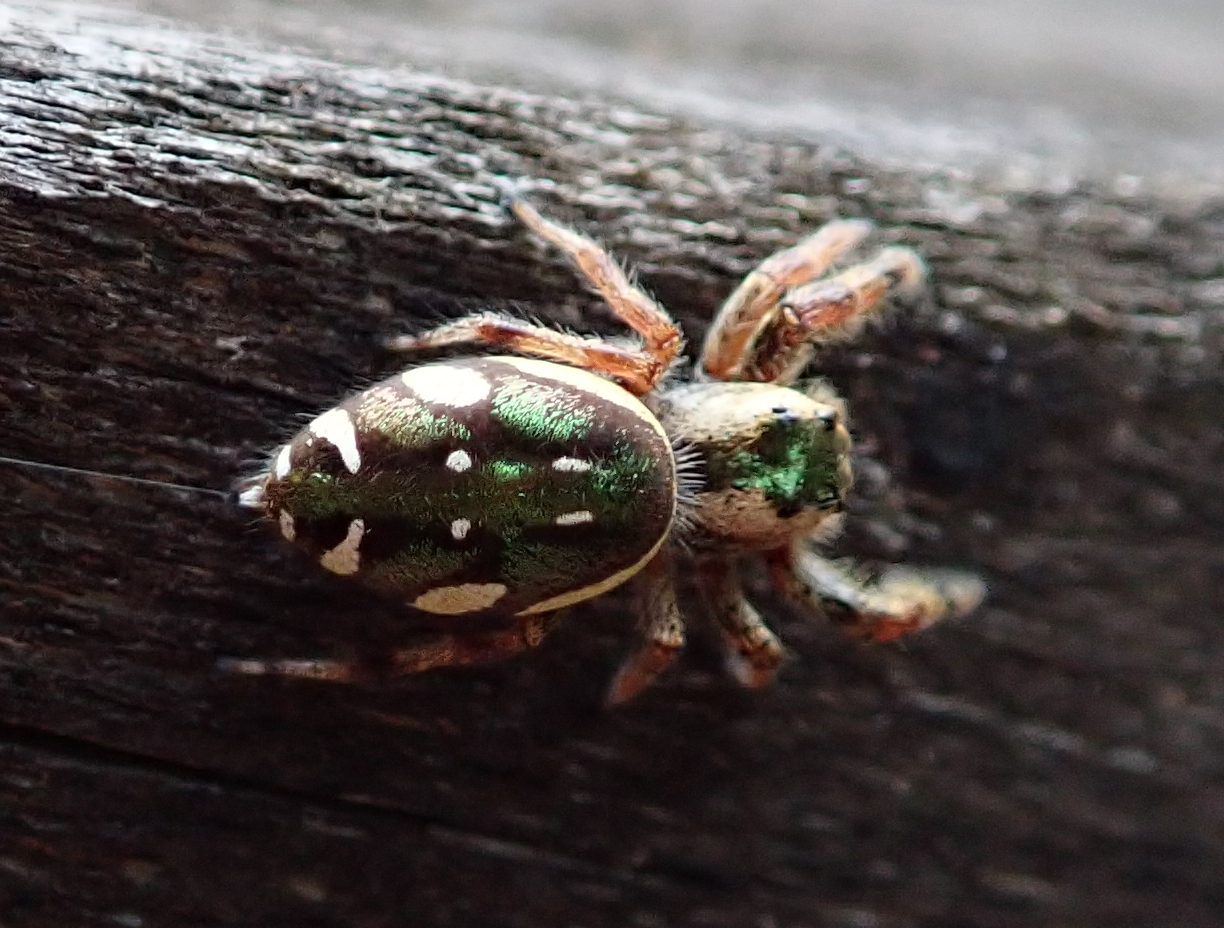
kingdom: Animalia
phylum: Arthropoda
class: Arachnida
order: Araneae
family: Salticidae
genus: Paraphidippus
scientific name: Paraphidippus aurantius
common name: Jumping spiders
